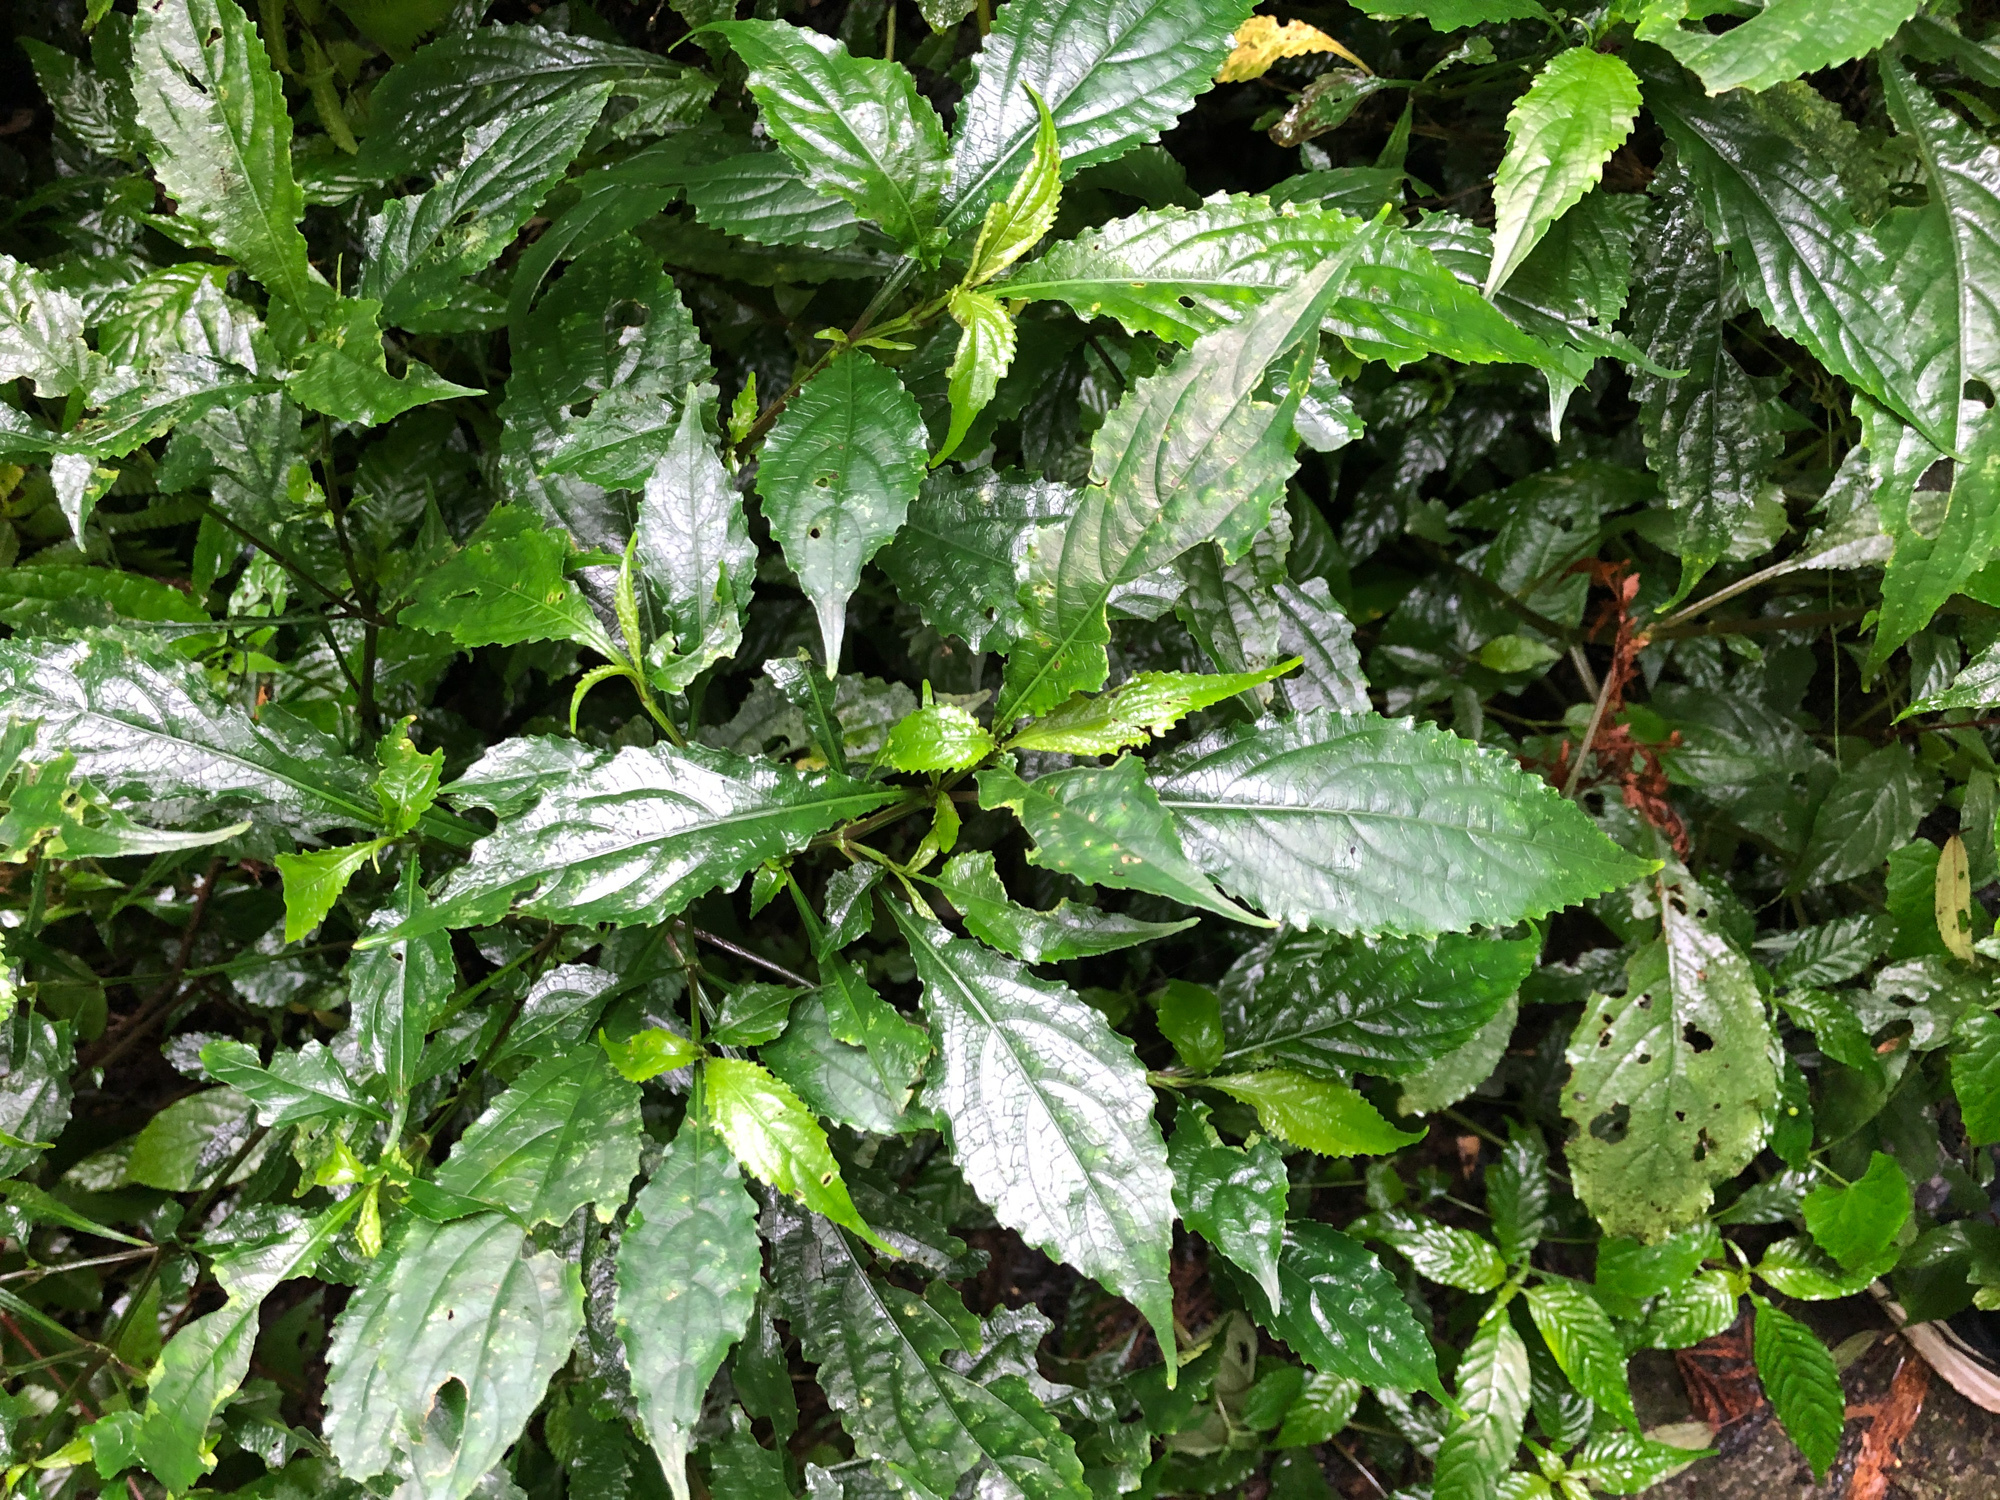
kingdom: Plantae
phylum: Tracheophyta
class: Magnoliopsida
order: Lamiales
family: Acanthaceae
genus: Strobilanthes
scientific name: Strobilanthes flexicaulis
